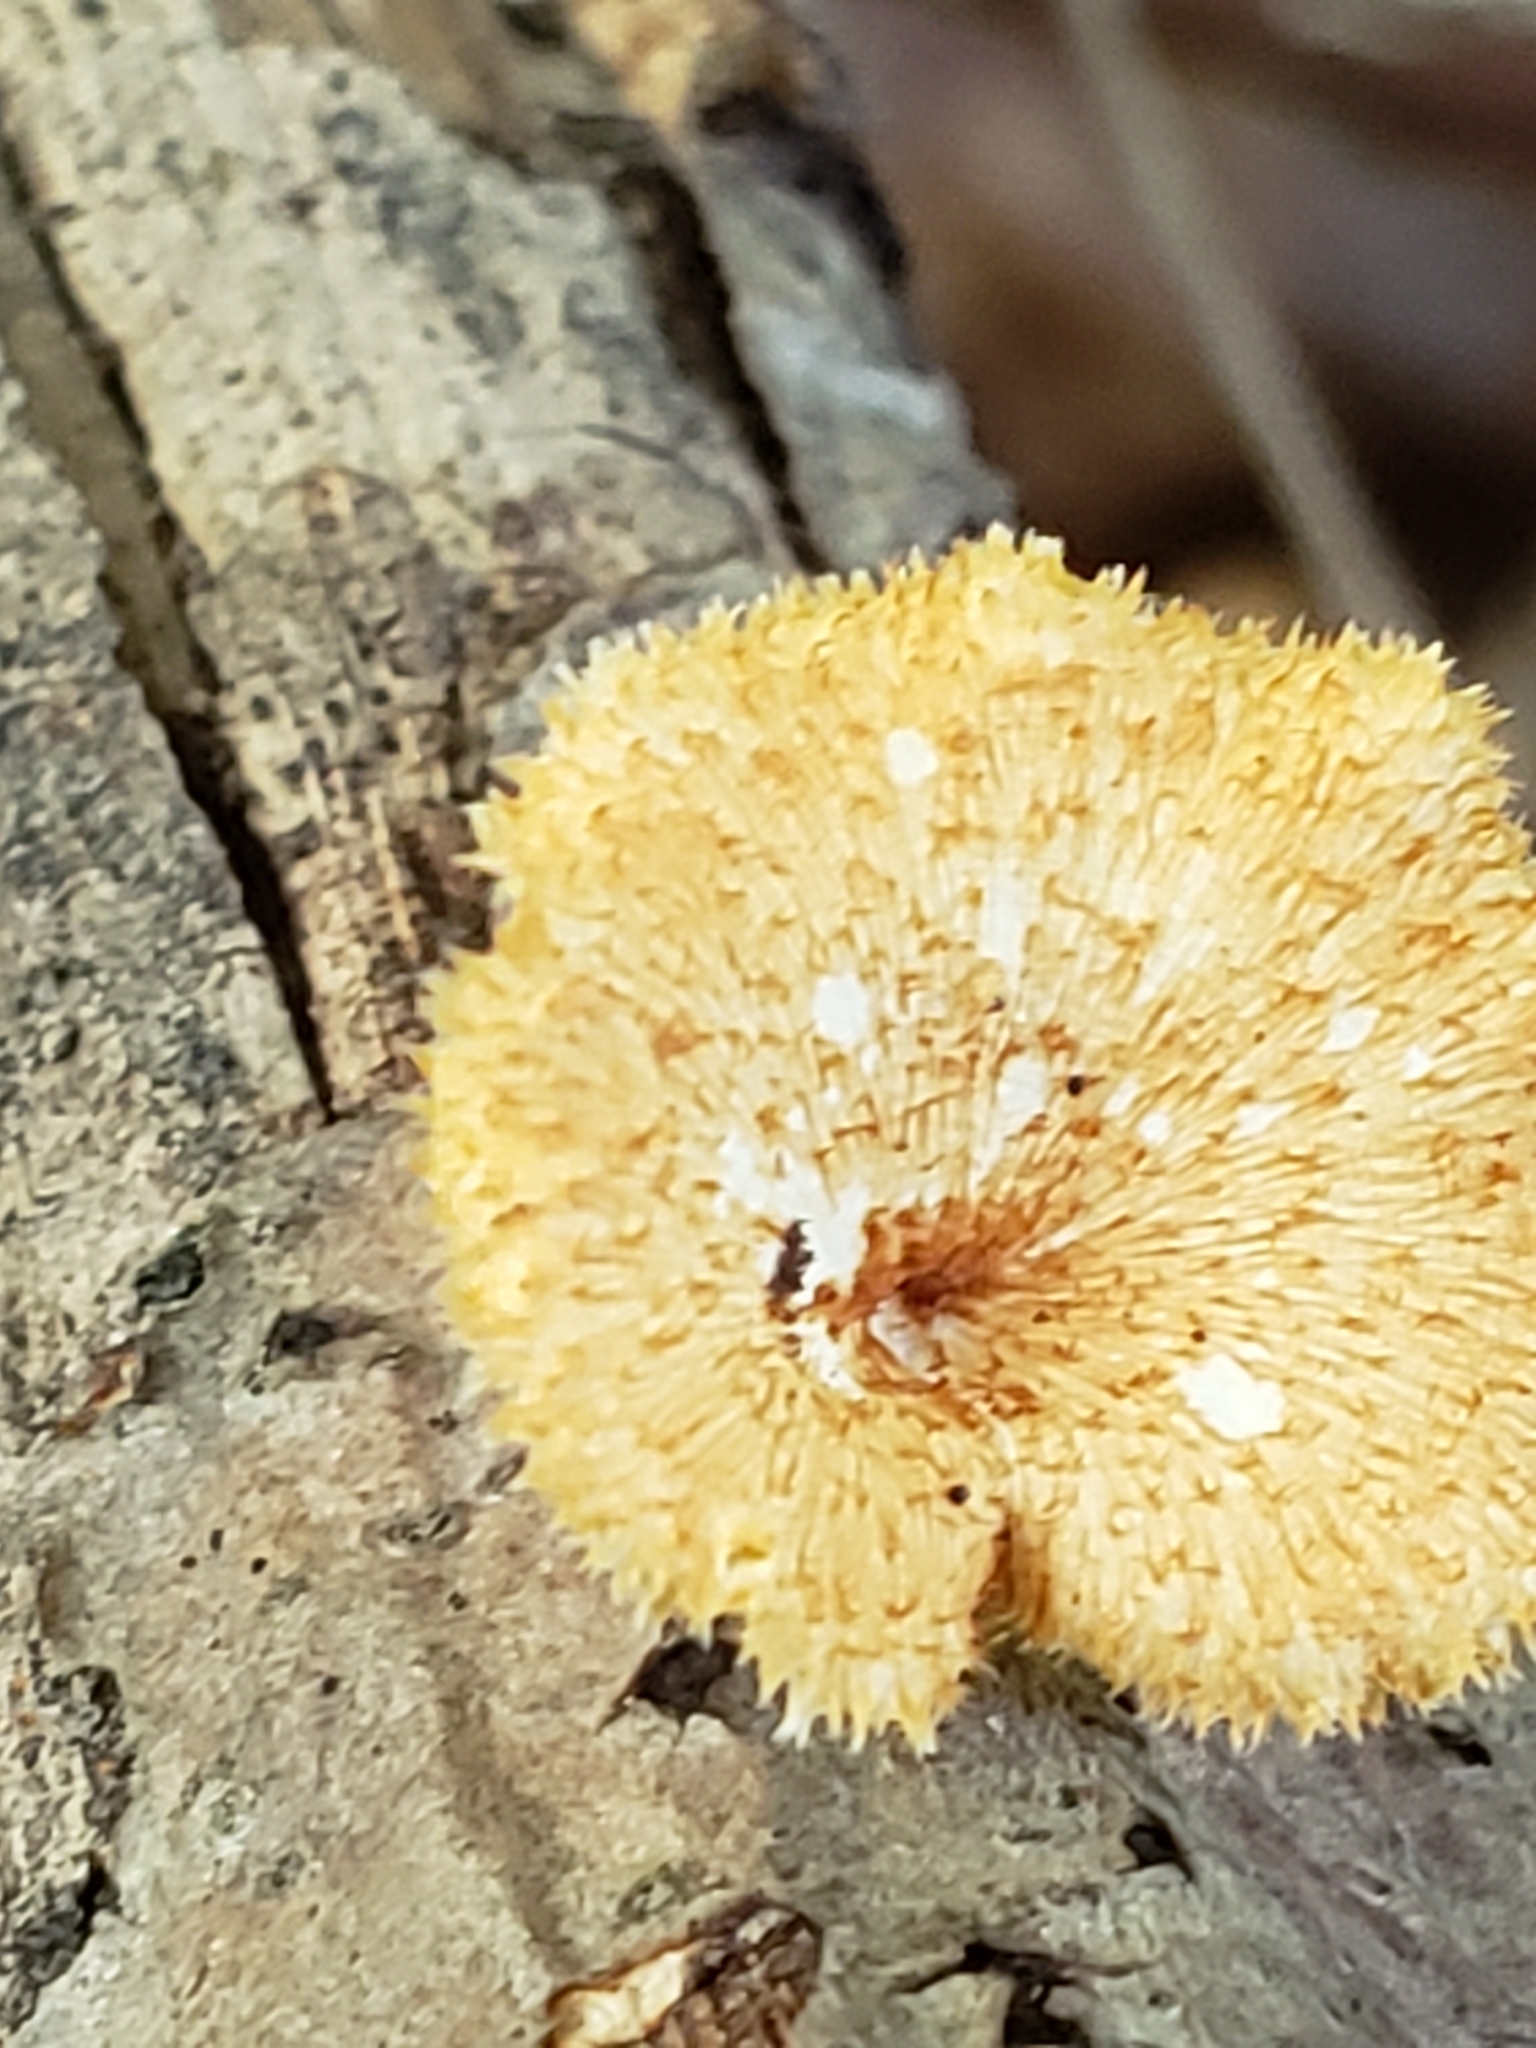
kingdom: Fungi
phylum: Basidiomycota
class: Agaricomycetes
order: Polyporales
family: Polyporaceae
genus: Neofavolus
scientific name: Neofavolus alveolaris
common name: Hexagonal-pored polypore
